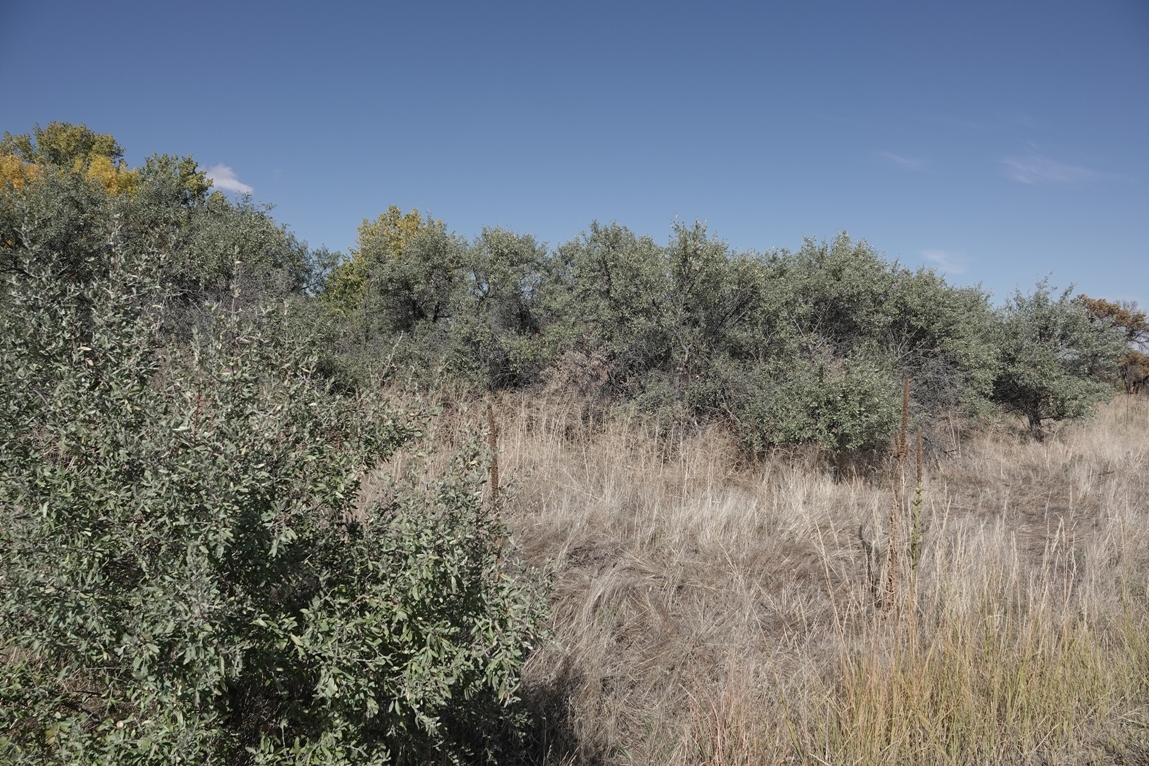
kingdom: Plantae
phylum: Tracheophyta
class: Magnoliopsida
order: Rosales
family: Elaeagnaceae
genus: Shepherdia
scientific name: Shepherdia argentea
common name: Silver buffaloberry
